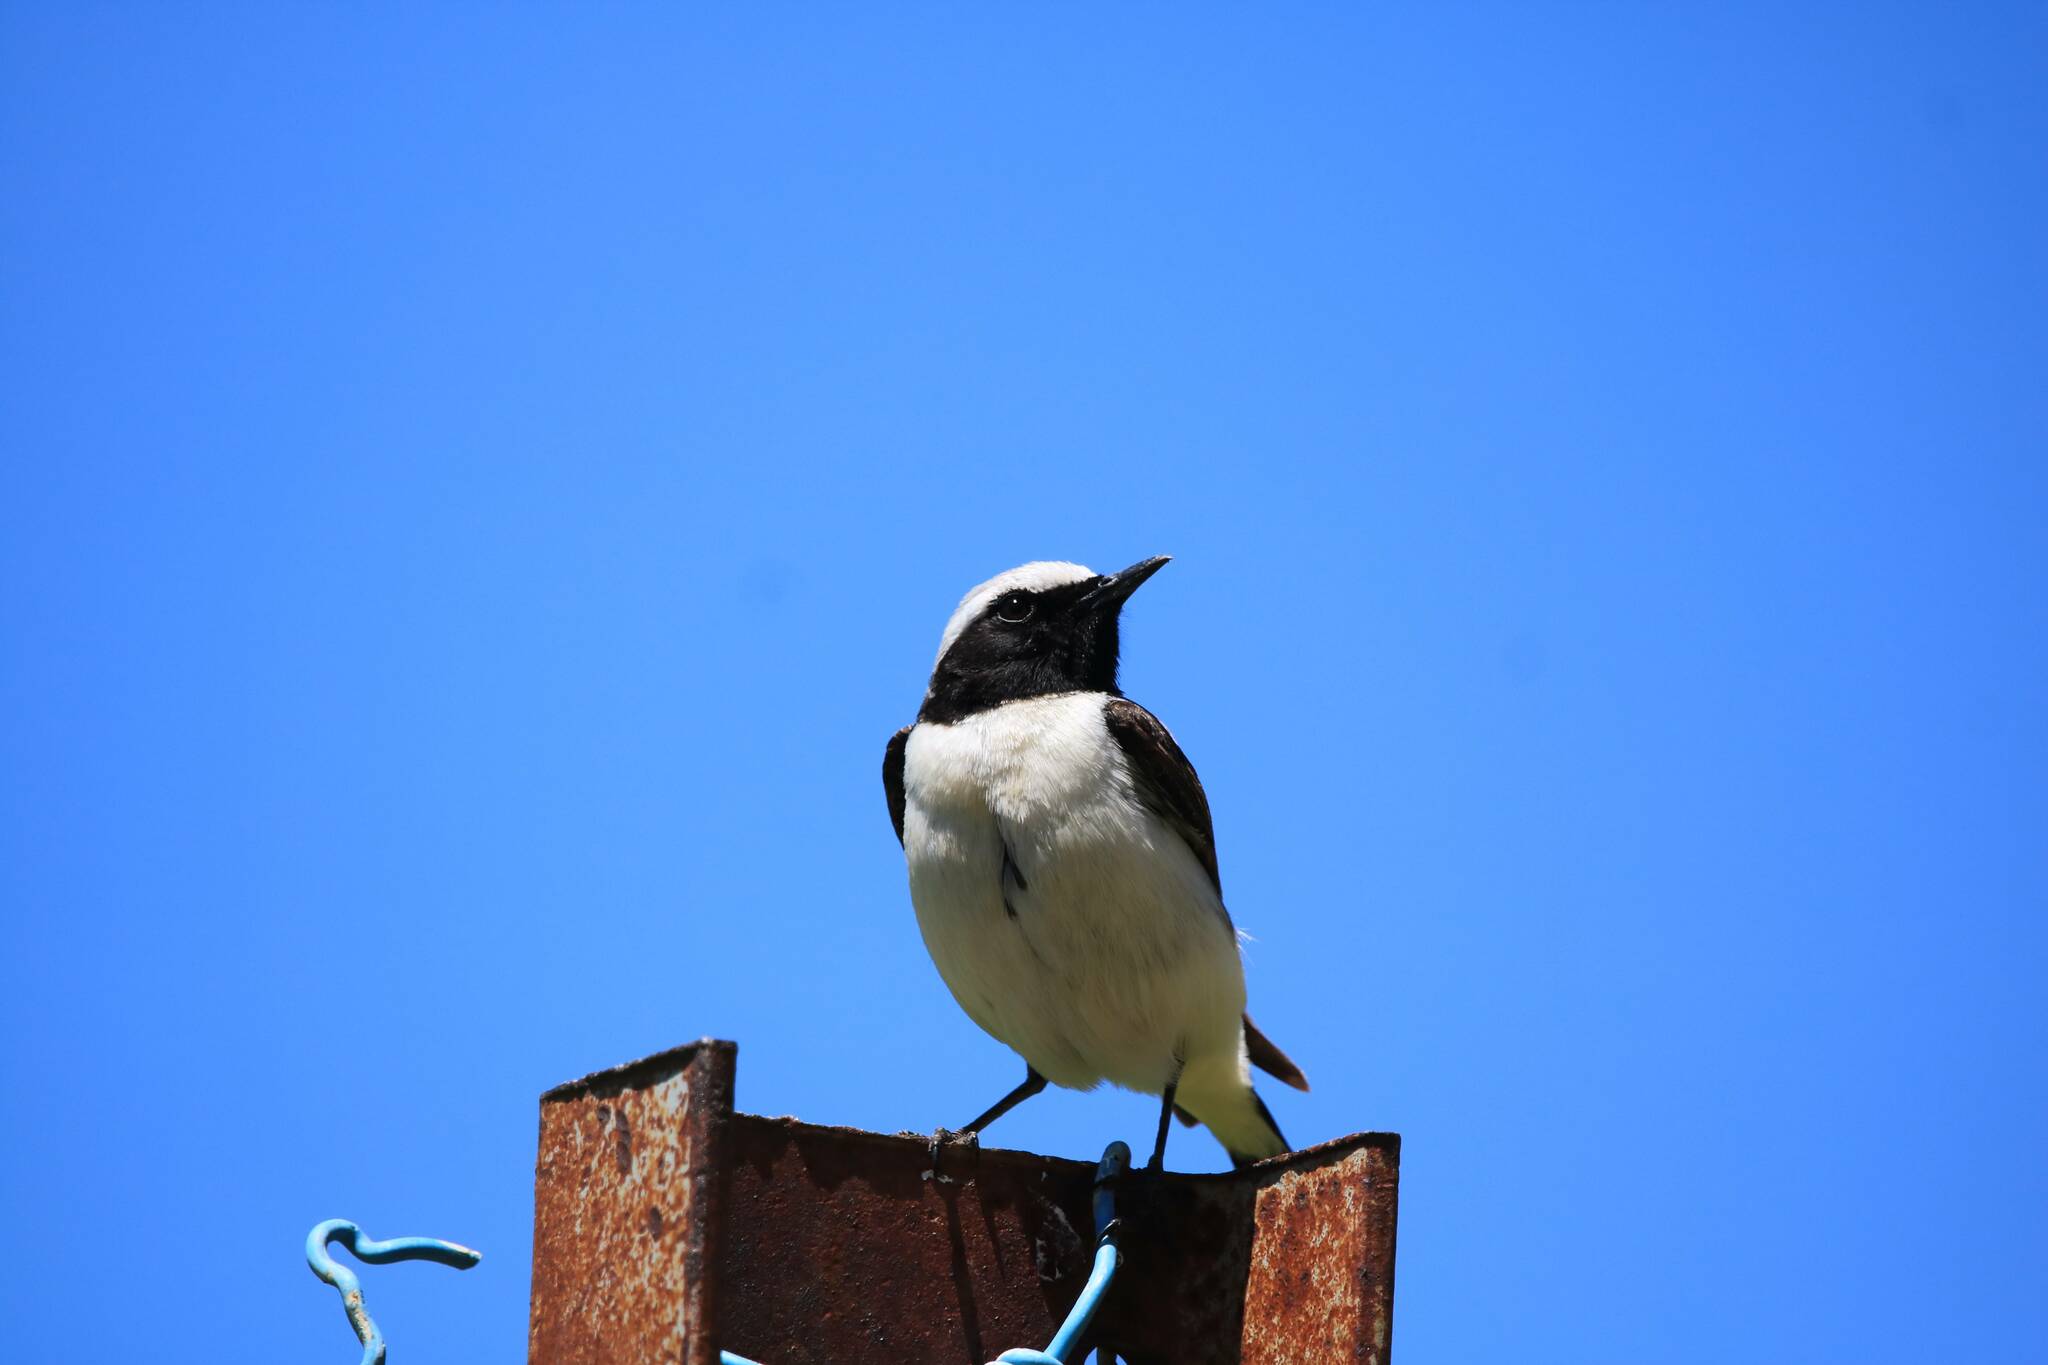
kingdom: Animalia
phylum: Chordata
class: Aves
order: Passeriformes
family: Muscicapidae
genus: Oenanthe
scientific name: Oenanthe oenanthe
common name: Northern wheatear
